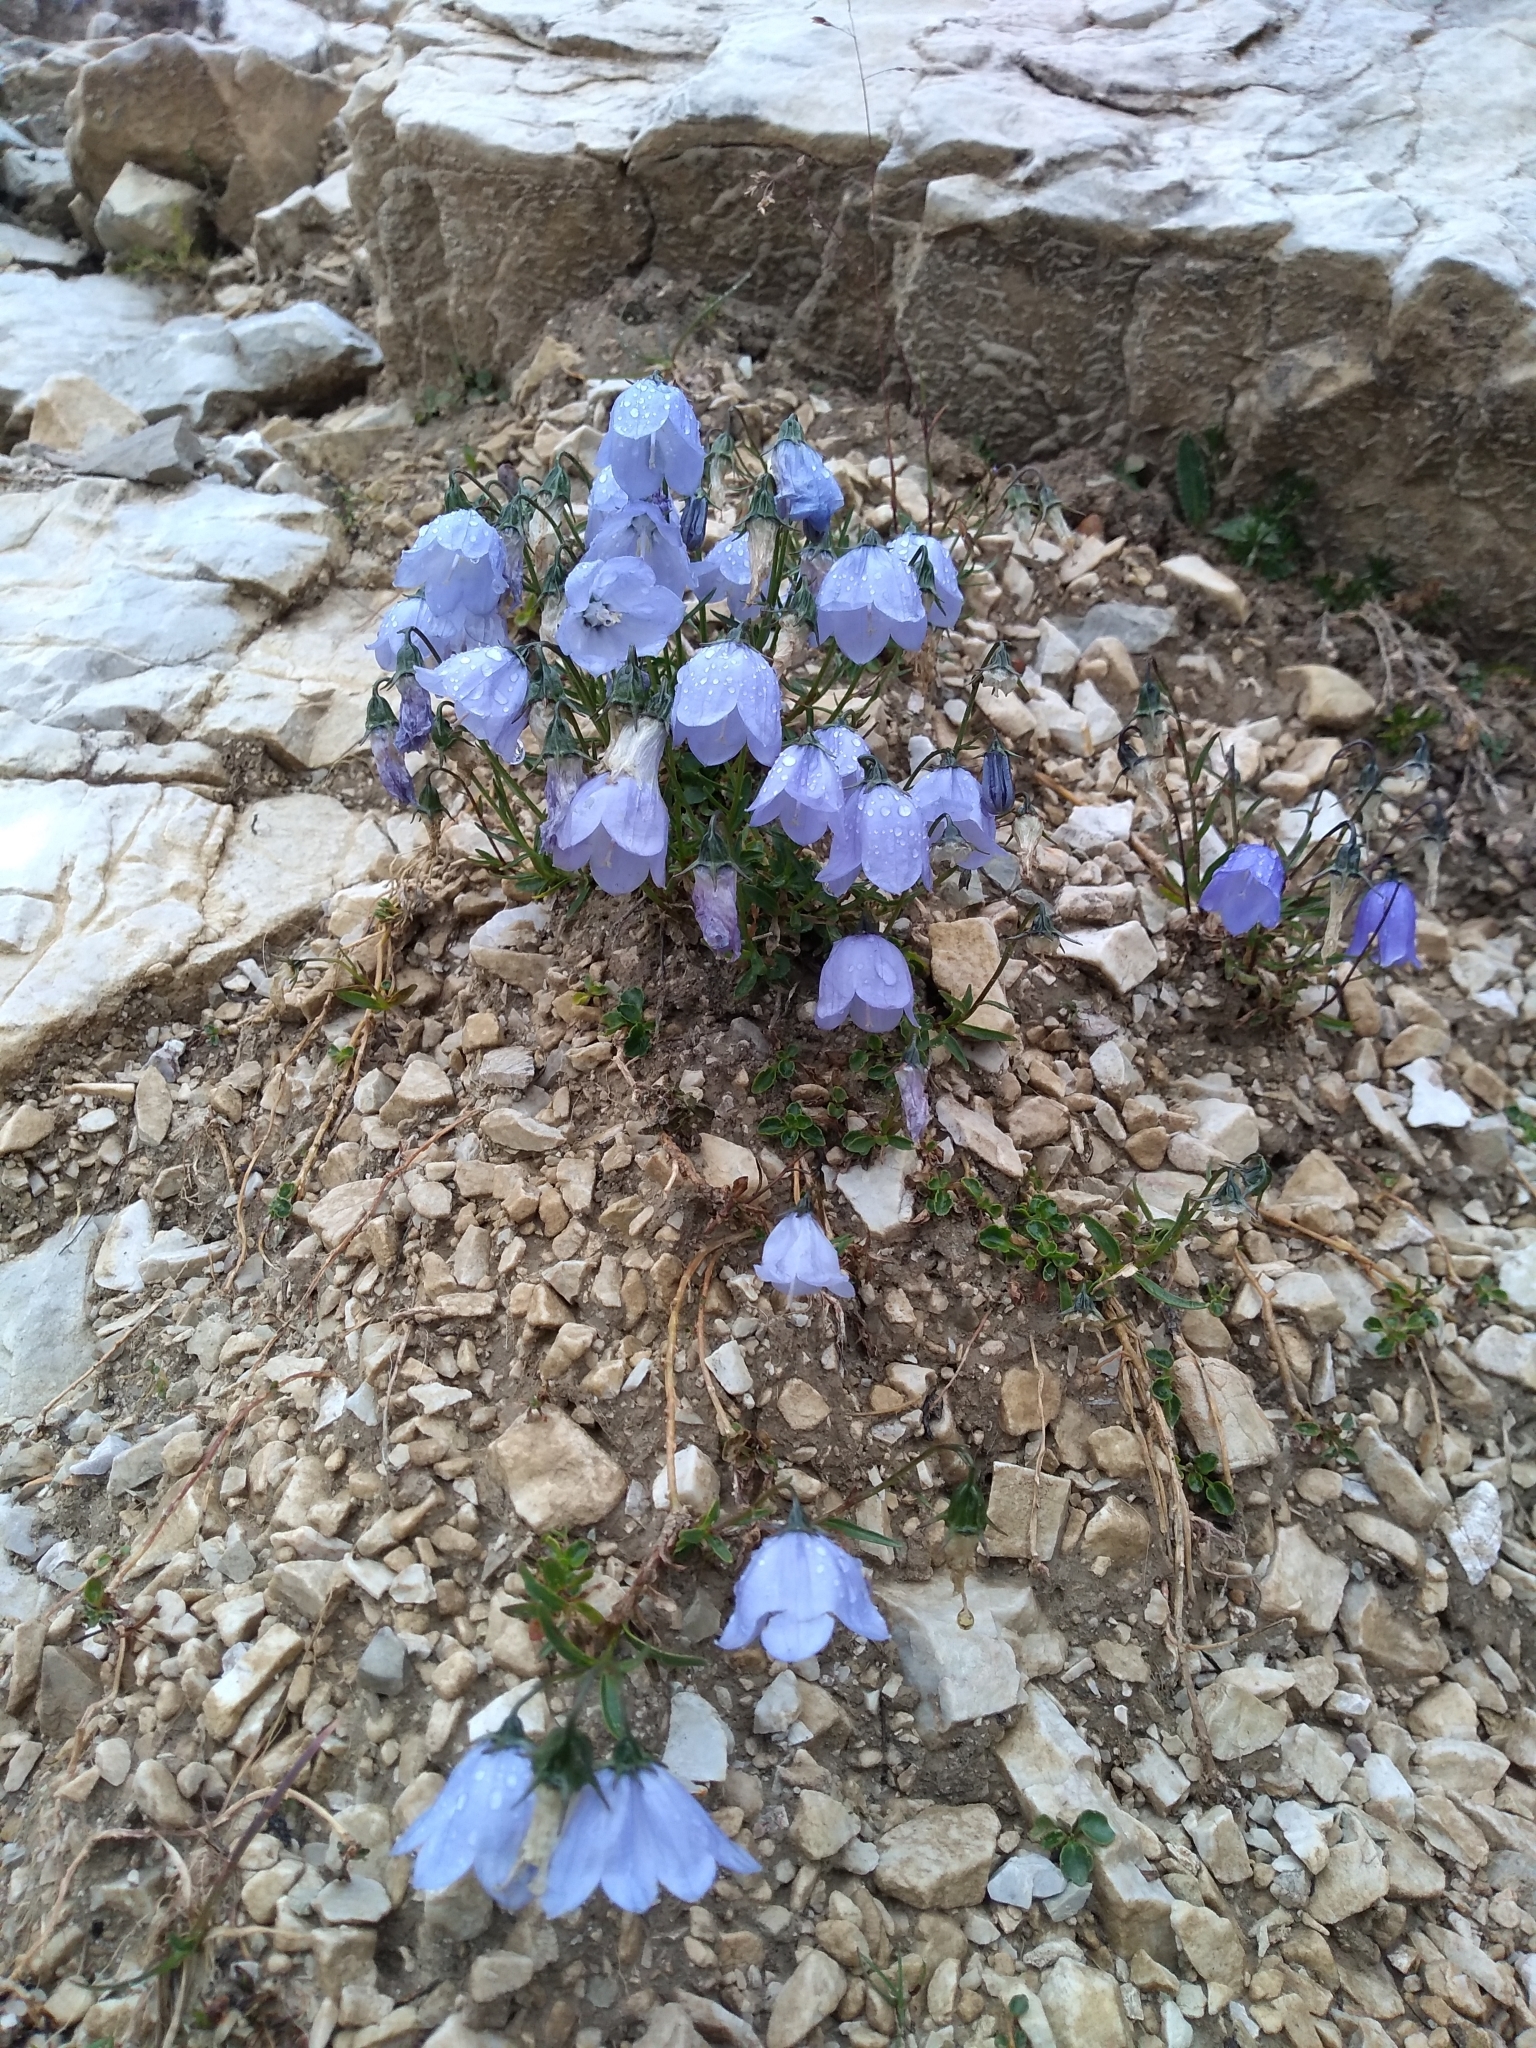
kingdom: Plantae
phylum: Tracheophyta
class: Magnoliopsida
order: Asterales
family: Campanulaceae
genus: Campanula
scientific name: Campanula cochleariifolia
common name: Fairies'-thimbles
